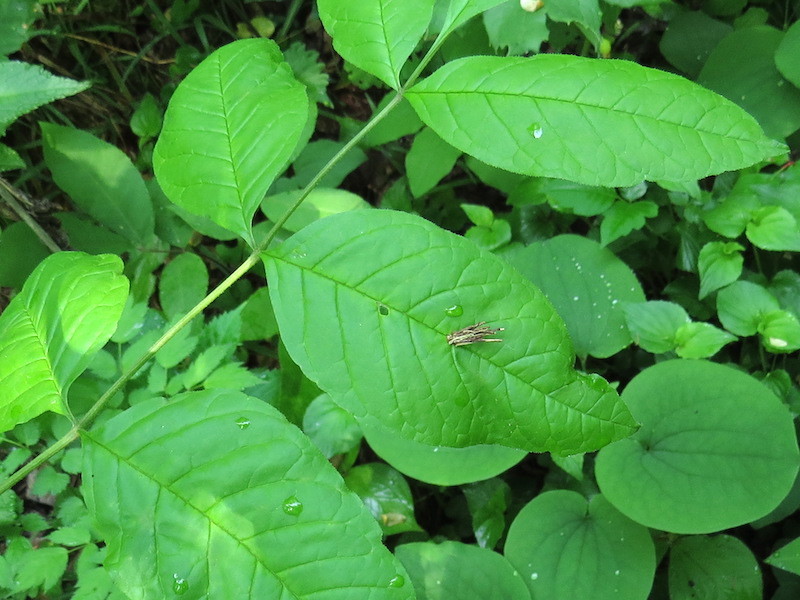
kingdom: Animalia
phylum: Arthropoda
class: Insecta
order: Lepidoptera
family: Psychidae
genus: Psyche
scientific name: Psyche casta
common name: Common sweep
